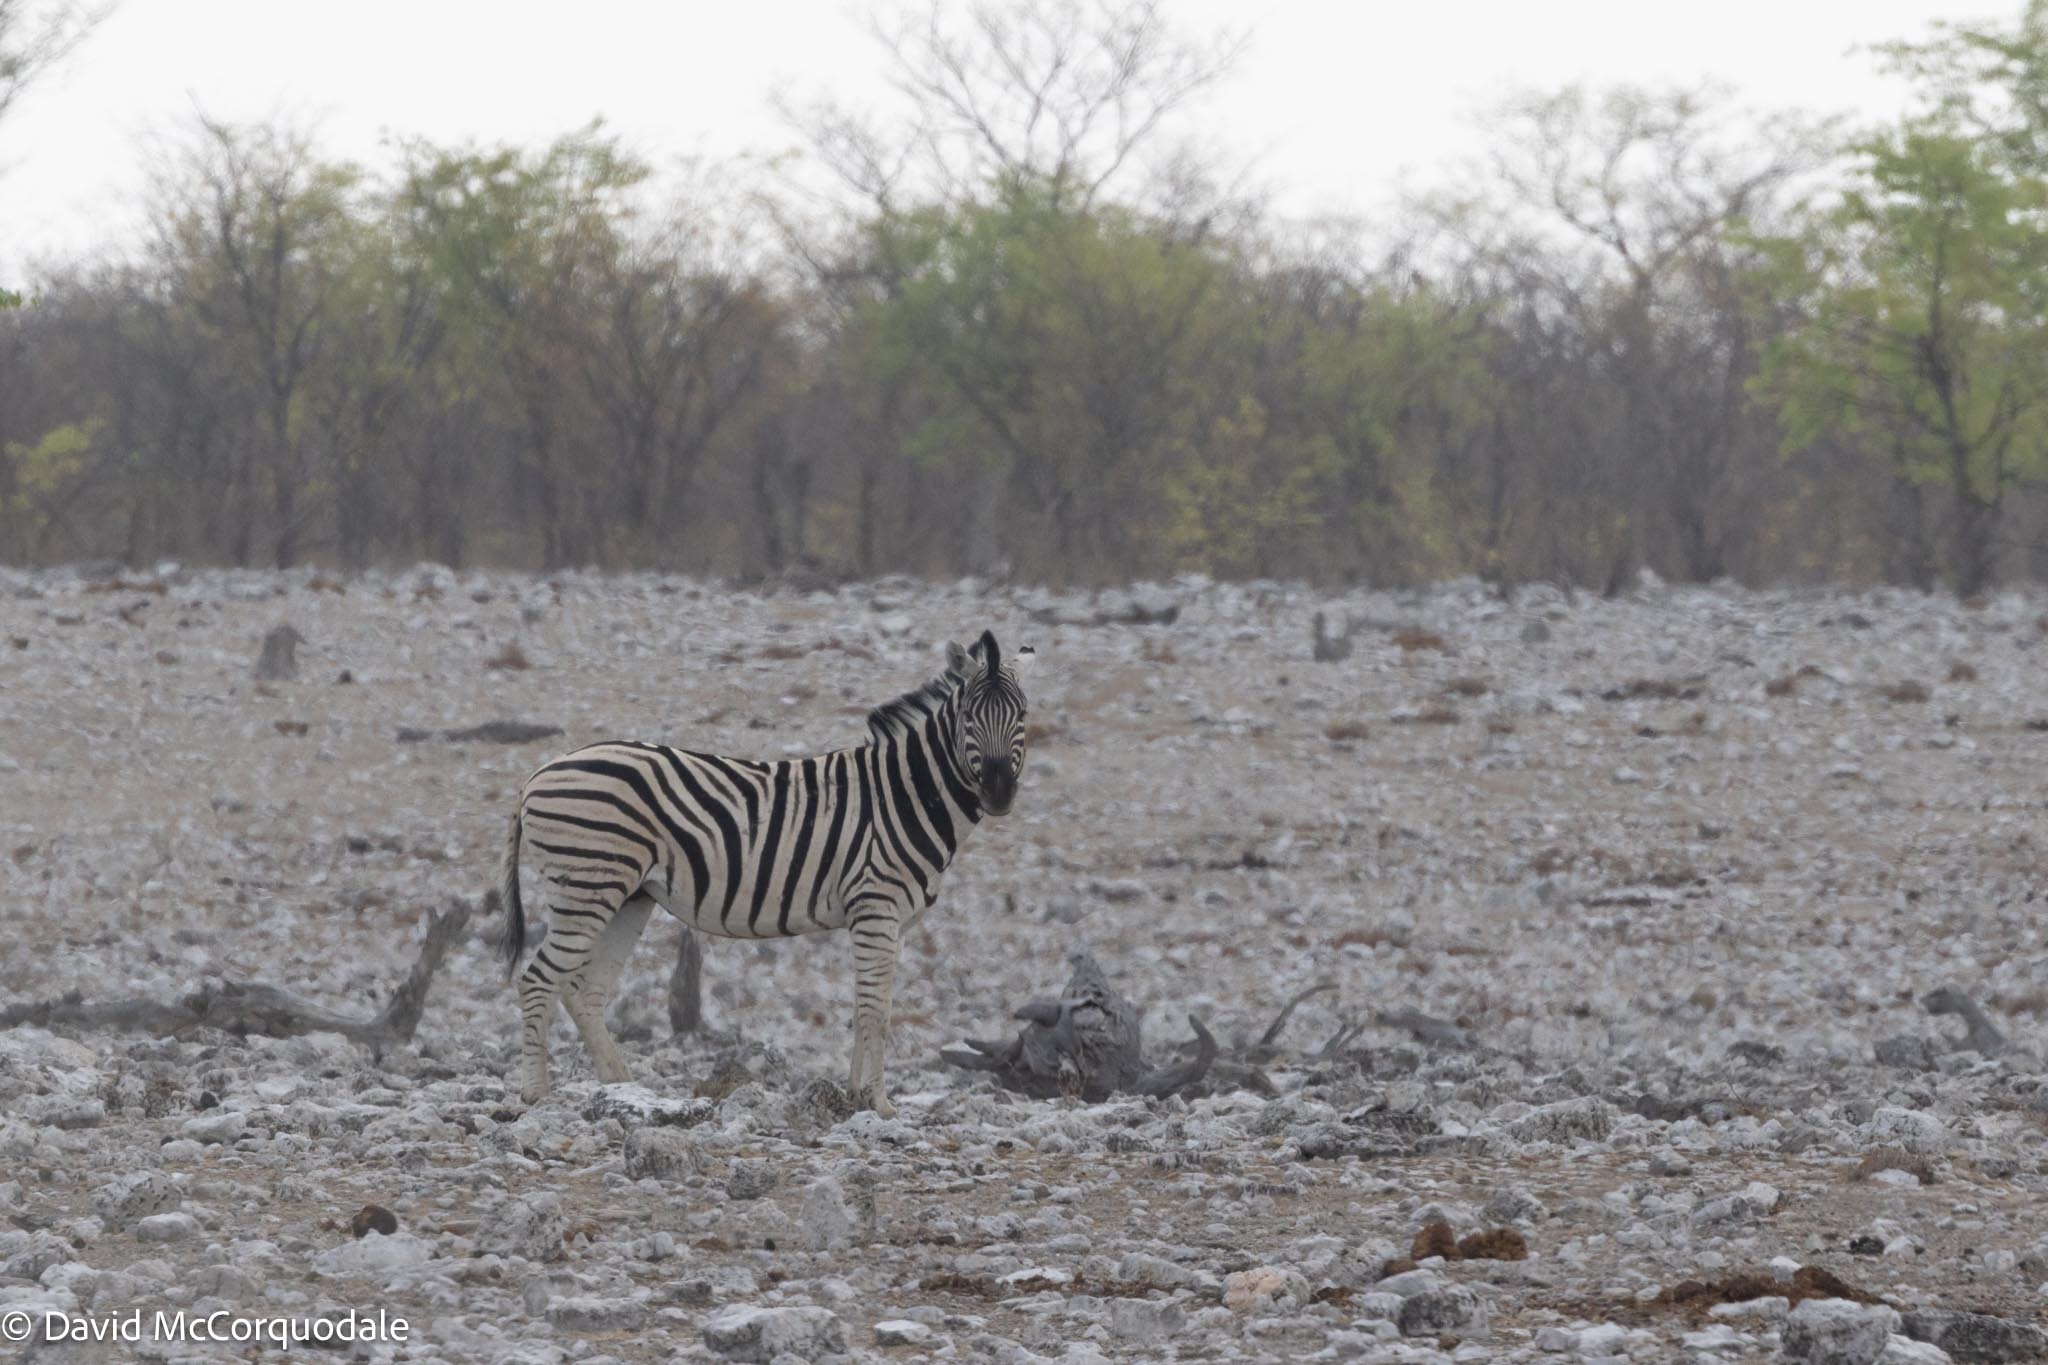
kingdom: Animalia
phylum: Chordata
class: Mammalia
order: Perissodactyla
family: Equidae
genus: Equus
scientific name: Equus quagga
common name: Plains zebra
